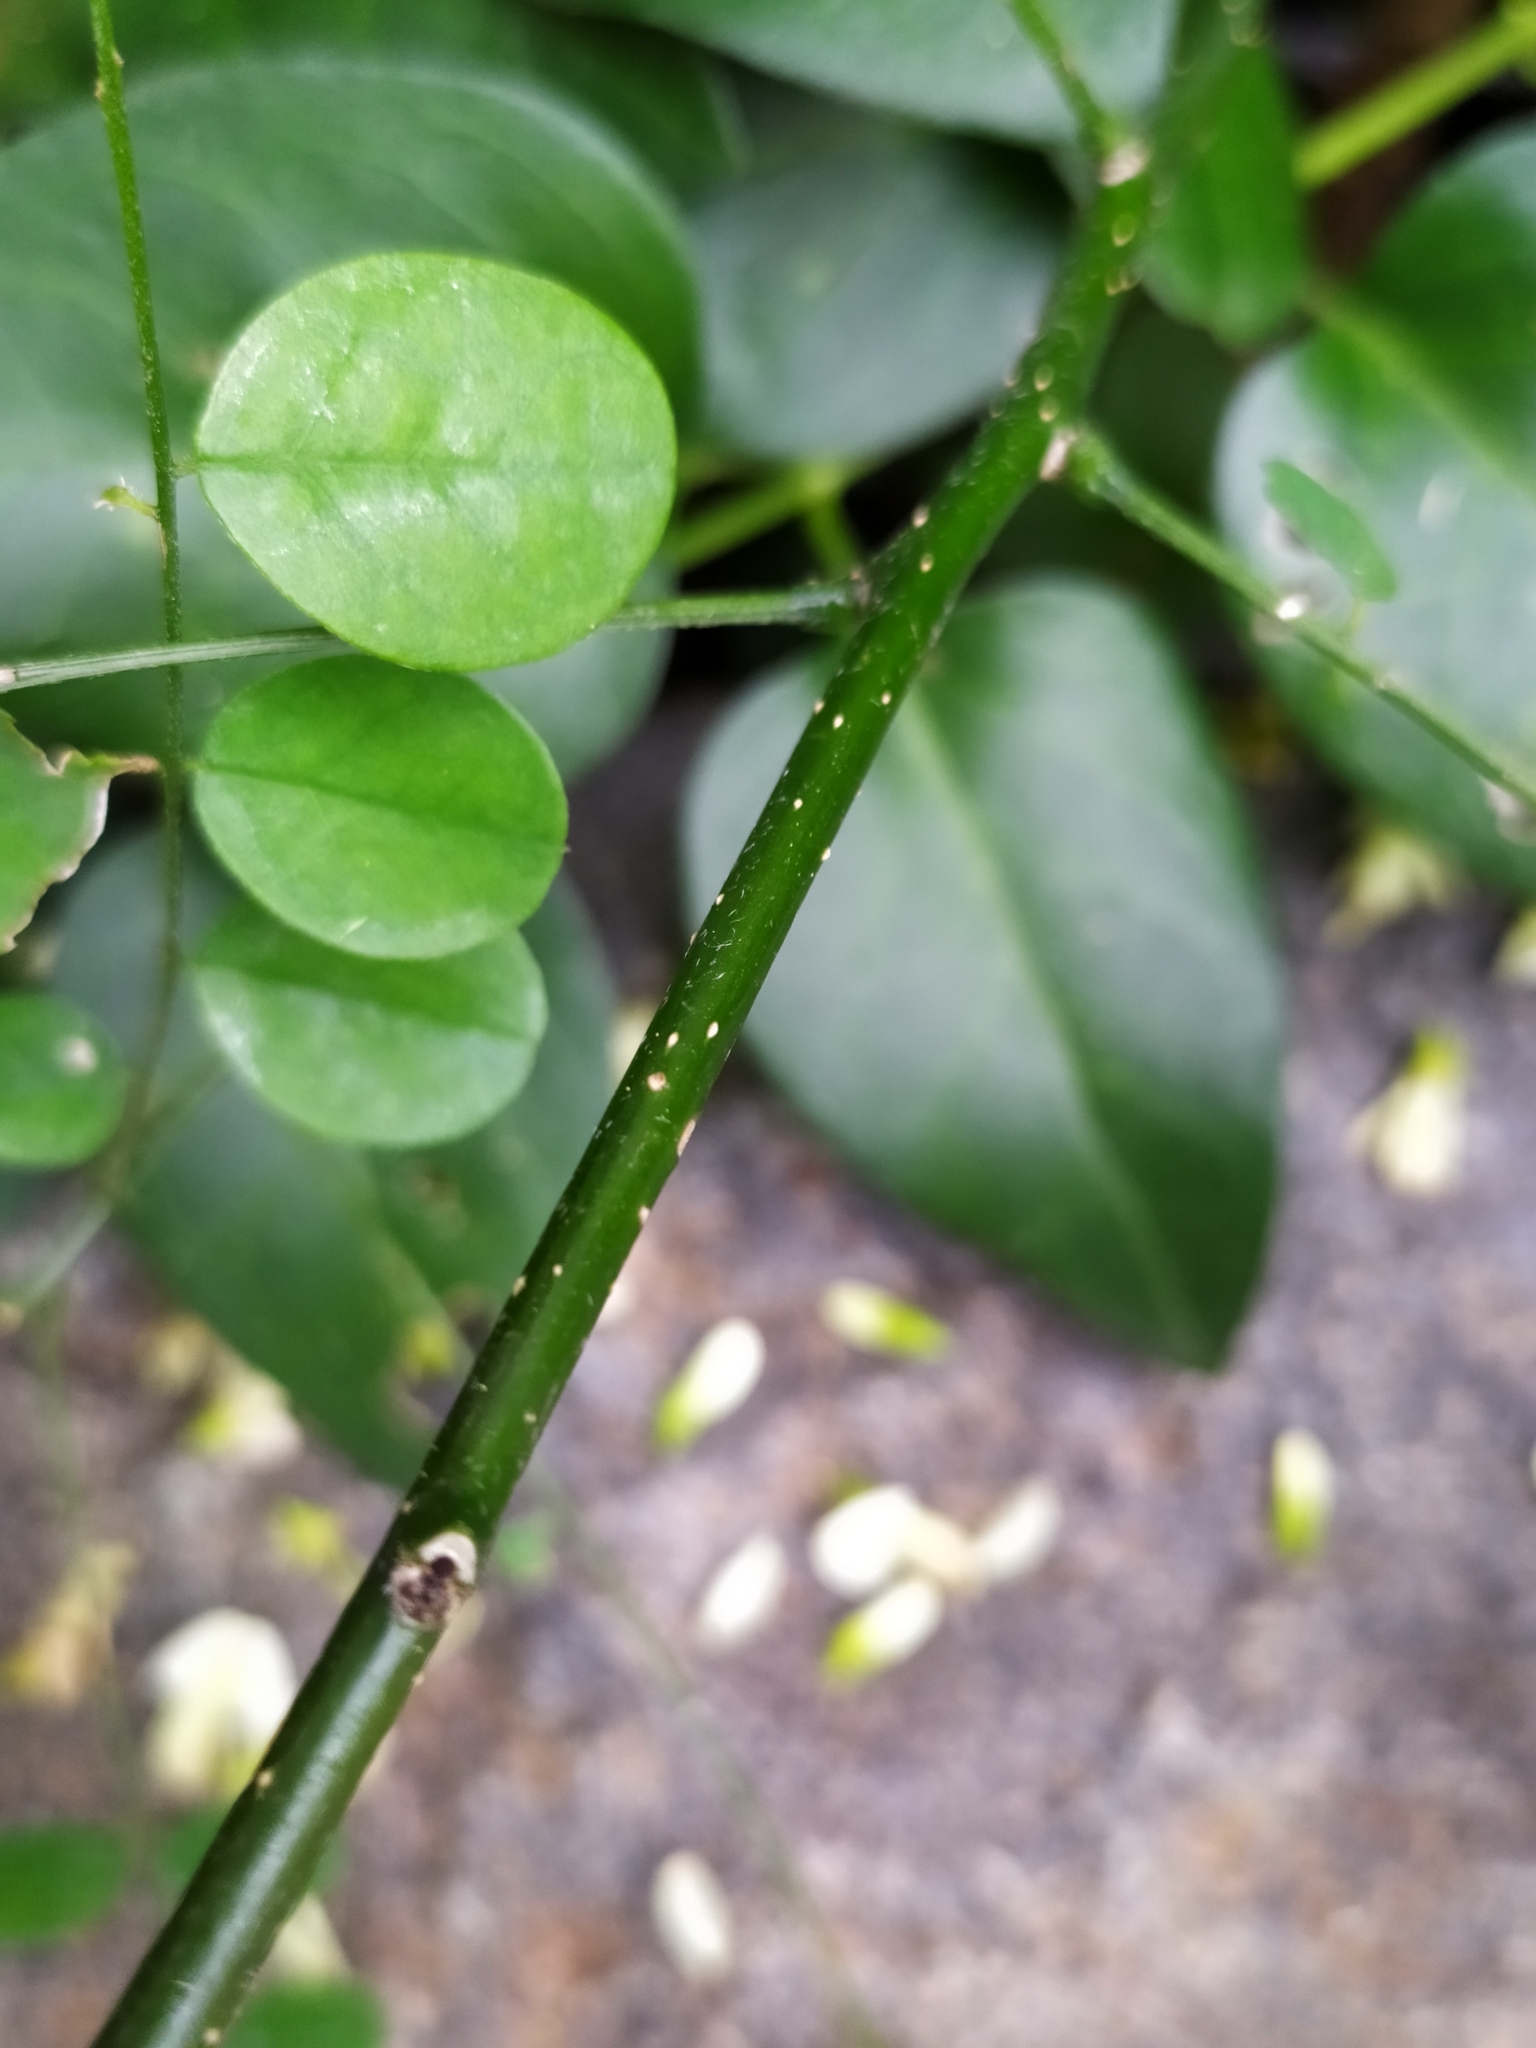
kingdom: Plantae
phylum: Tracheophyta
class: Magnoliopsida
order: Fabales
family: Fabaceae
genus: Styphnolobium
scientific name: Styphnolobium japonicum
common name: Chinese scholartree
